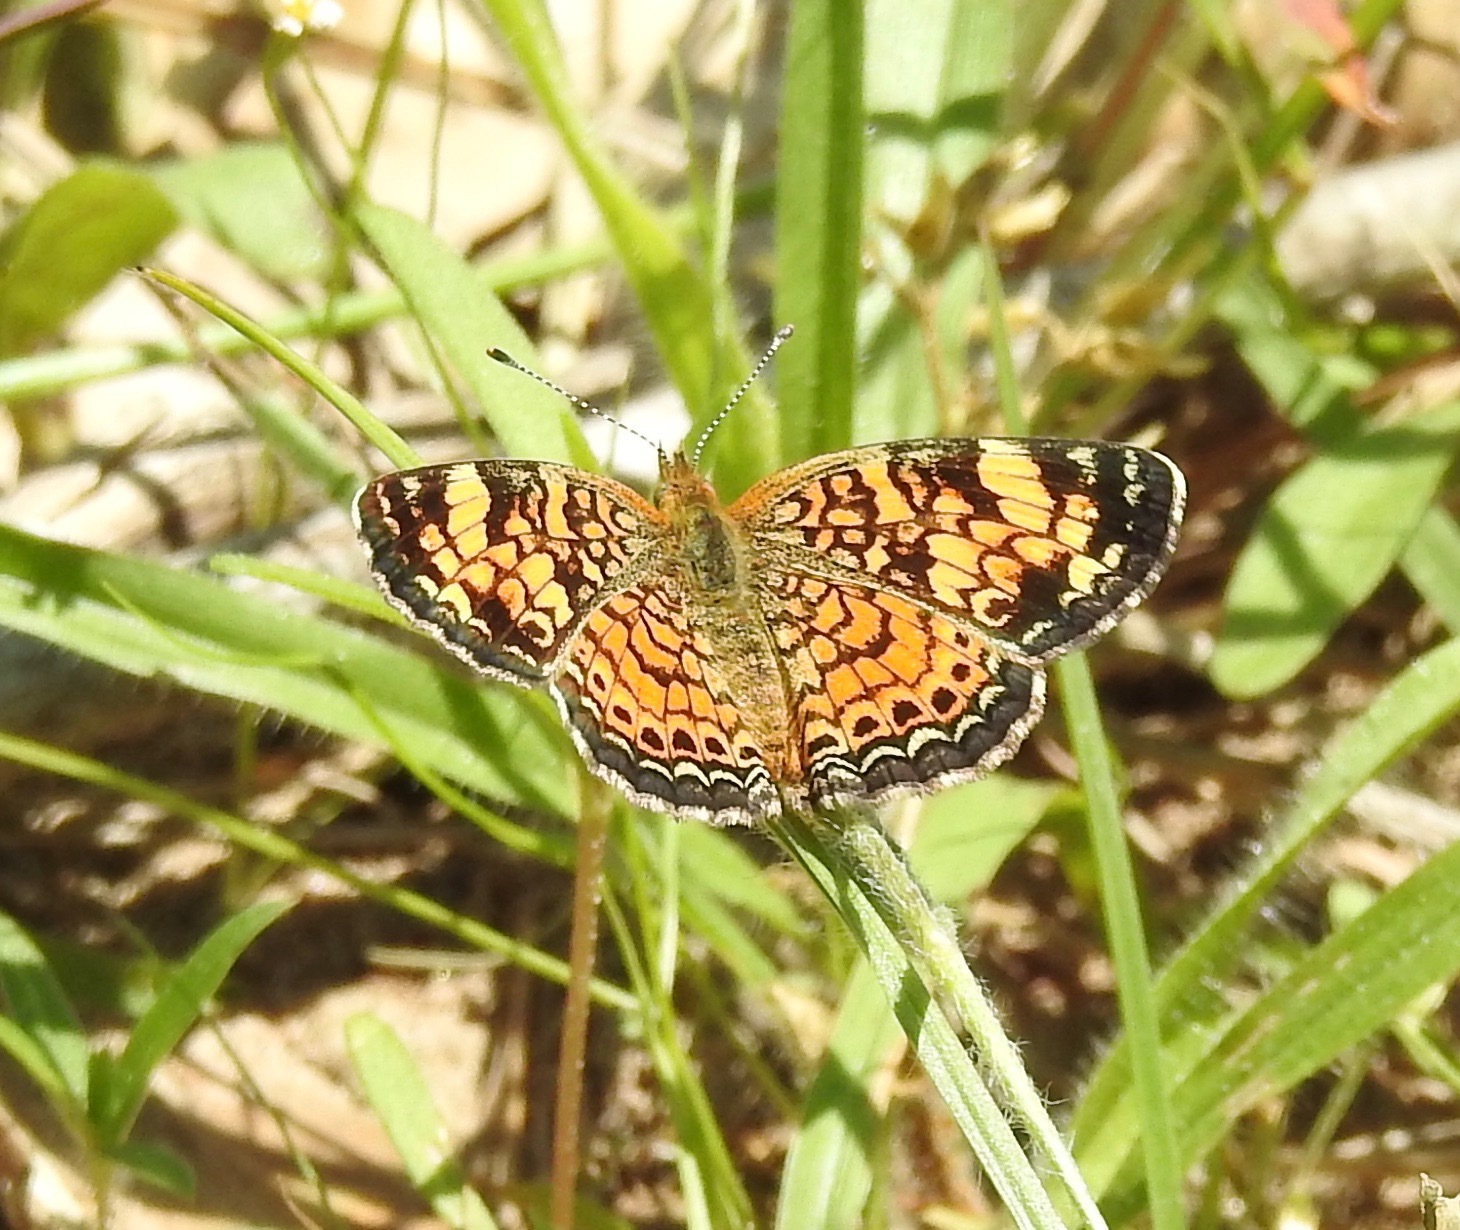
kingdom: Animalia
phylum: Arthropoda
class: Insecta
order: Lepidoptera
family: Nymphalidae
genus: Phyciodes
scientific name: Phyciodes tharos
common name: Pearl crescent
